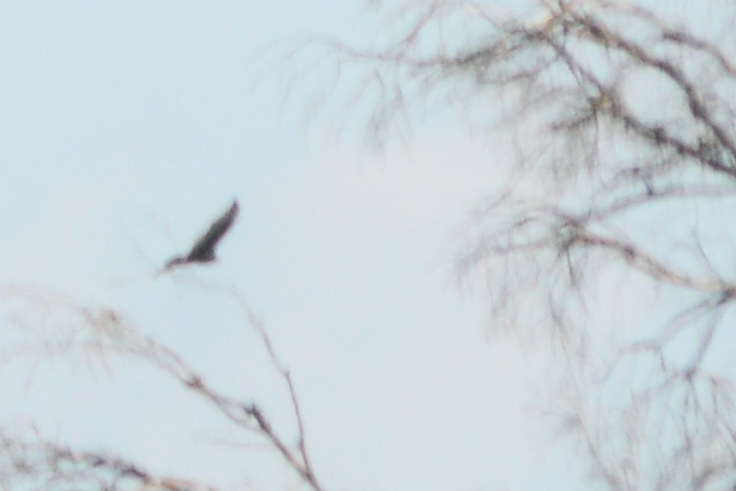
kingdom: Animalia
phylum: Chordata
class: Aves
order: Accipitriformes
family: Cathartidae
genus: Cathartes
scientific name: Cathartes aura
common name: Turkey vulture
